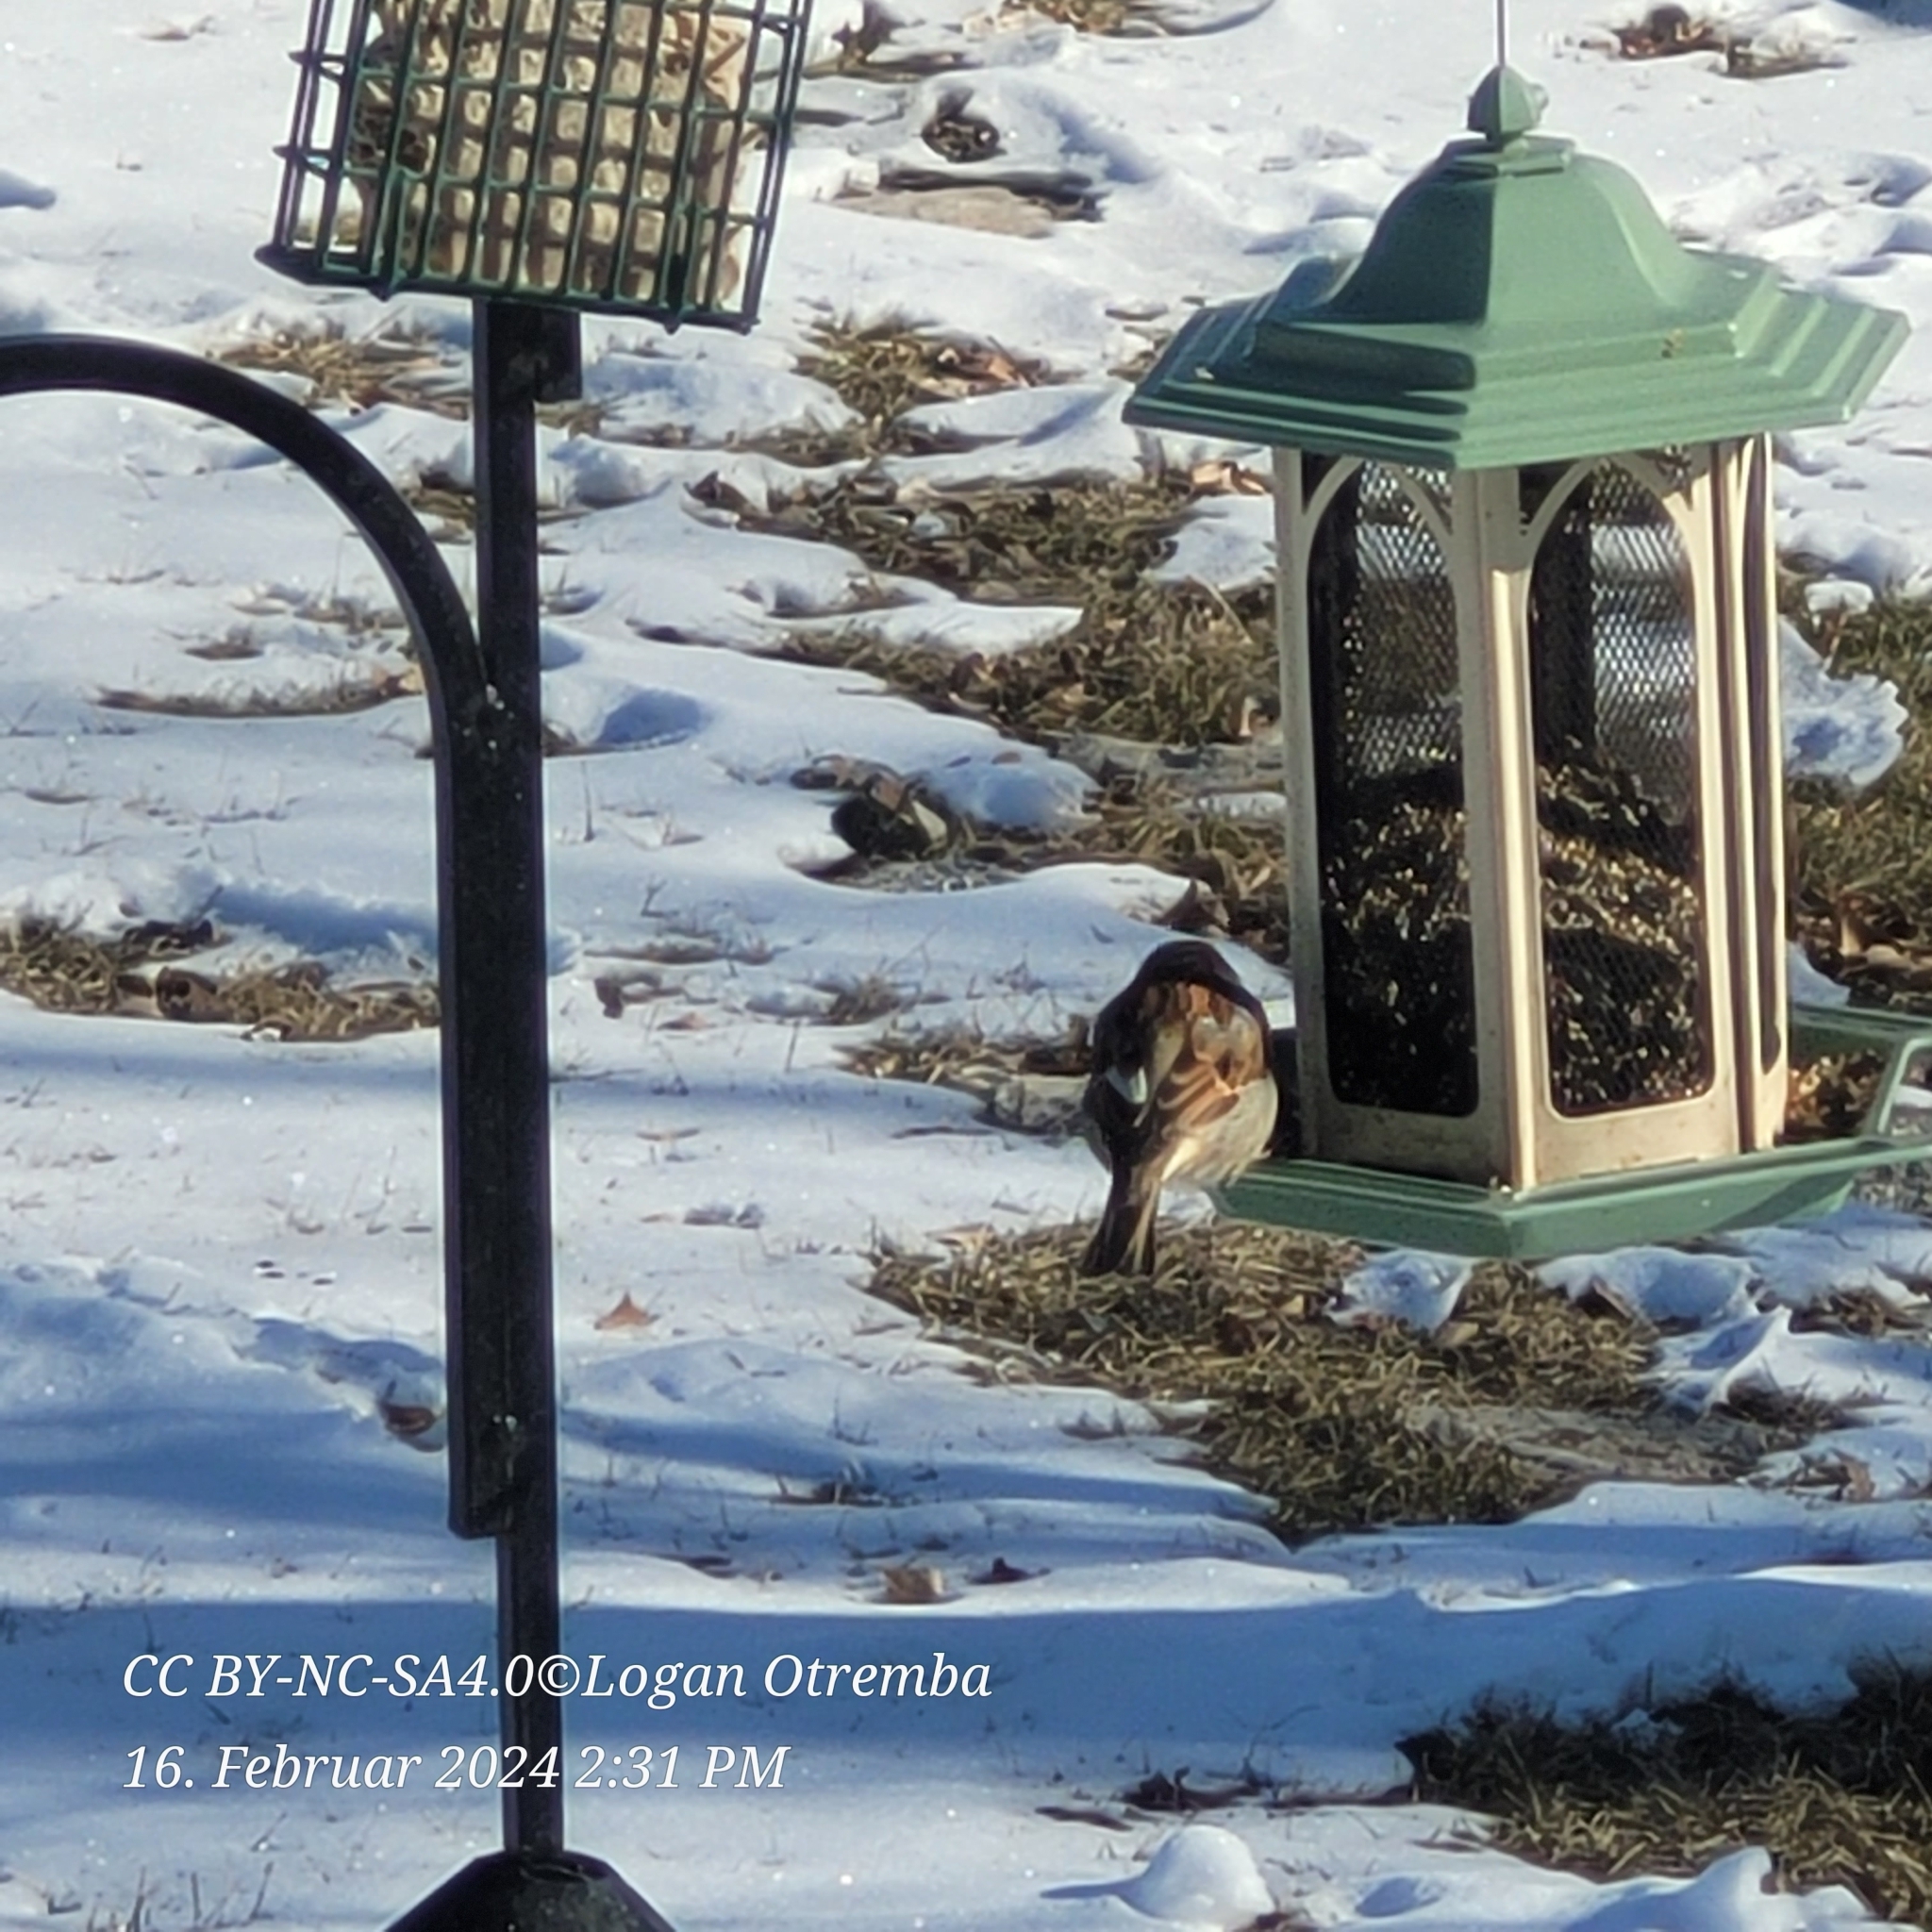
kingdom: Animalia
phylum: Chordata
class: Aves
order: Passeriformes
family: Passeridae
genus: Passer
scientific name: Passer domesticus
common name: House sparrow
